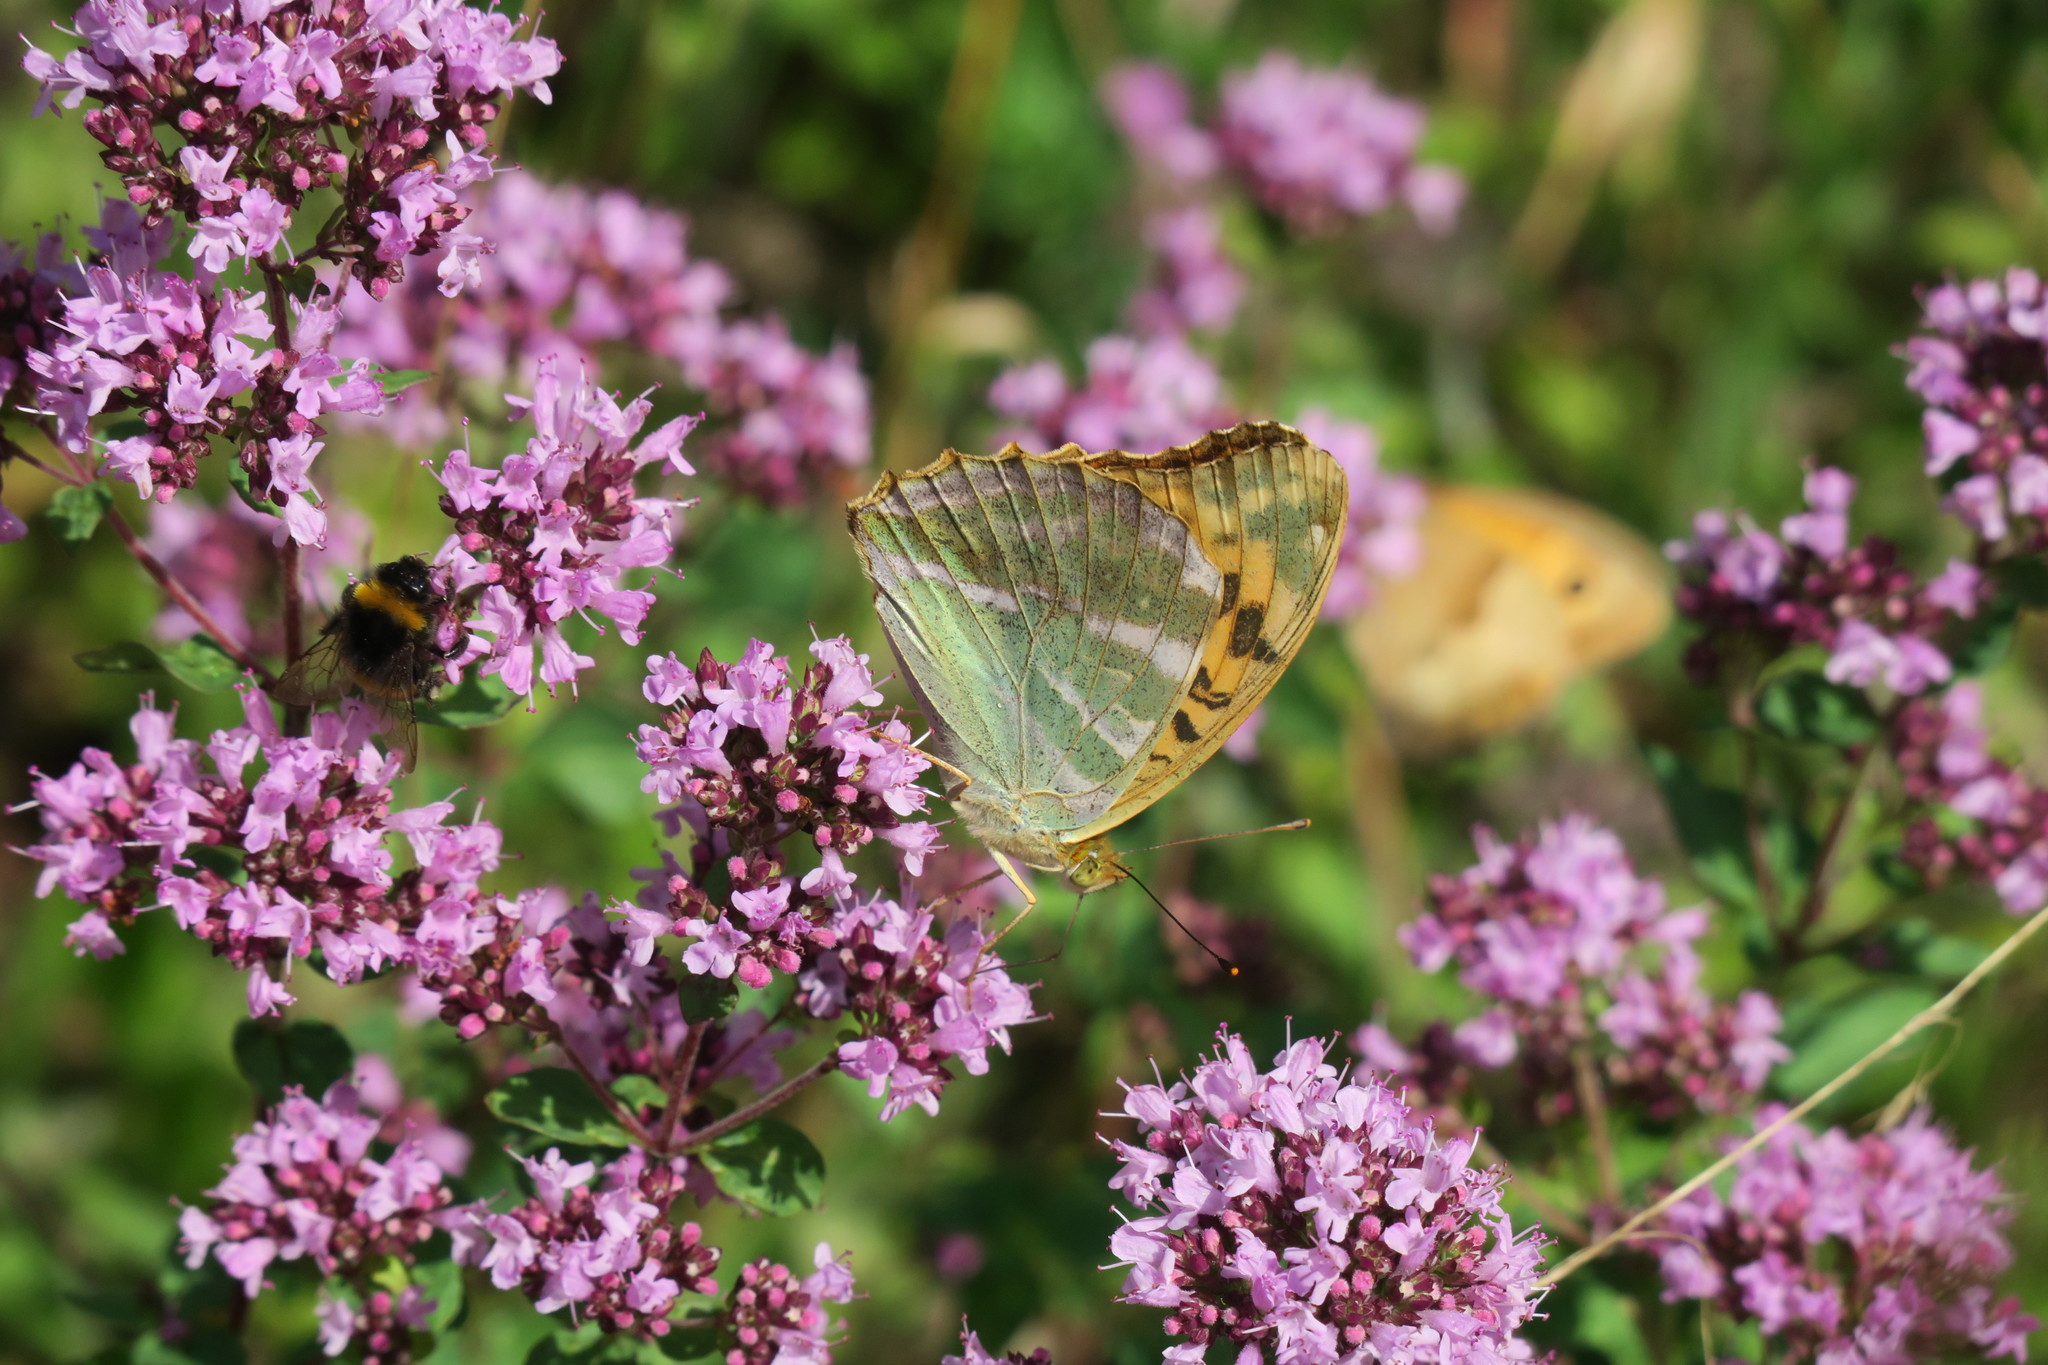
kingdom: Animalia
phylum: Arthropoda
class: Insecta
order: Lepidoptera
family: Nymphalidae
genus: Argynnis
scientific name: Argynnis paphia
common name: Silver-washed fritillary
